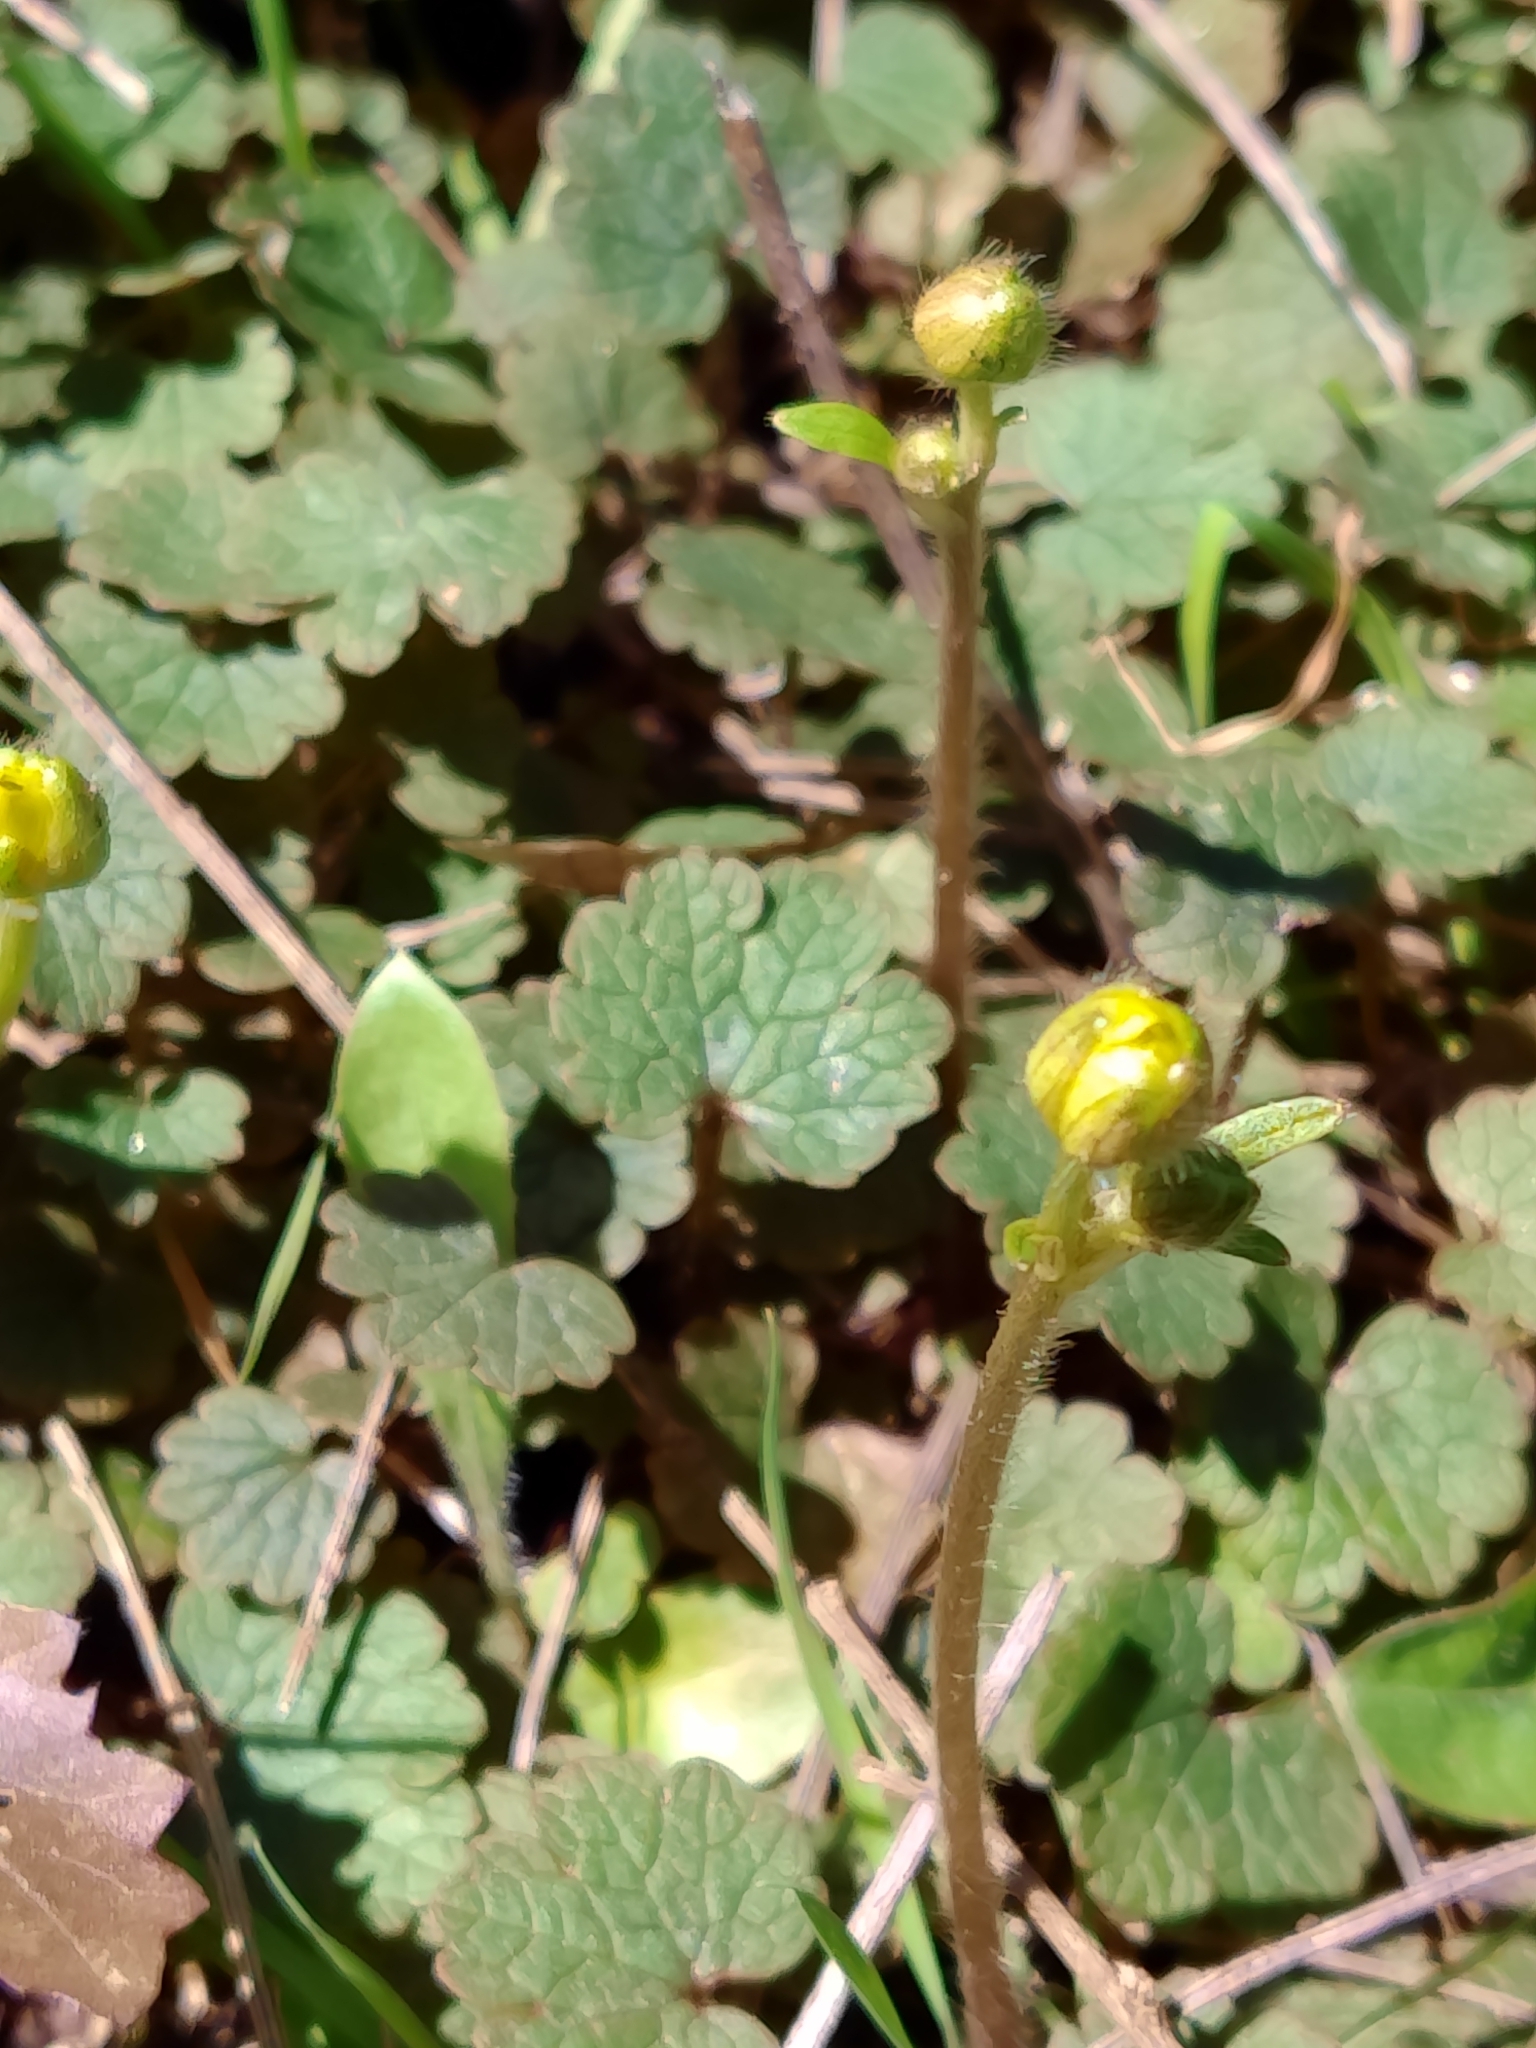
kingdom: Plantae
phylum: Tracheophyta
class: Magnoliopsida
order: Ranunculales
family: Ranunculaceae
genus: Ranunculus
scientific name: Ranunculus nigrescens
